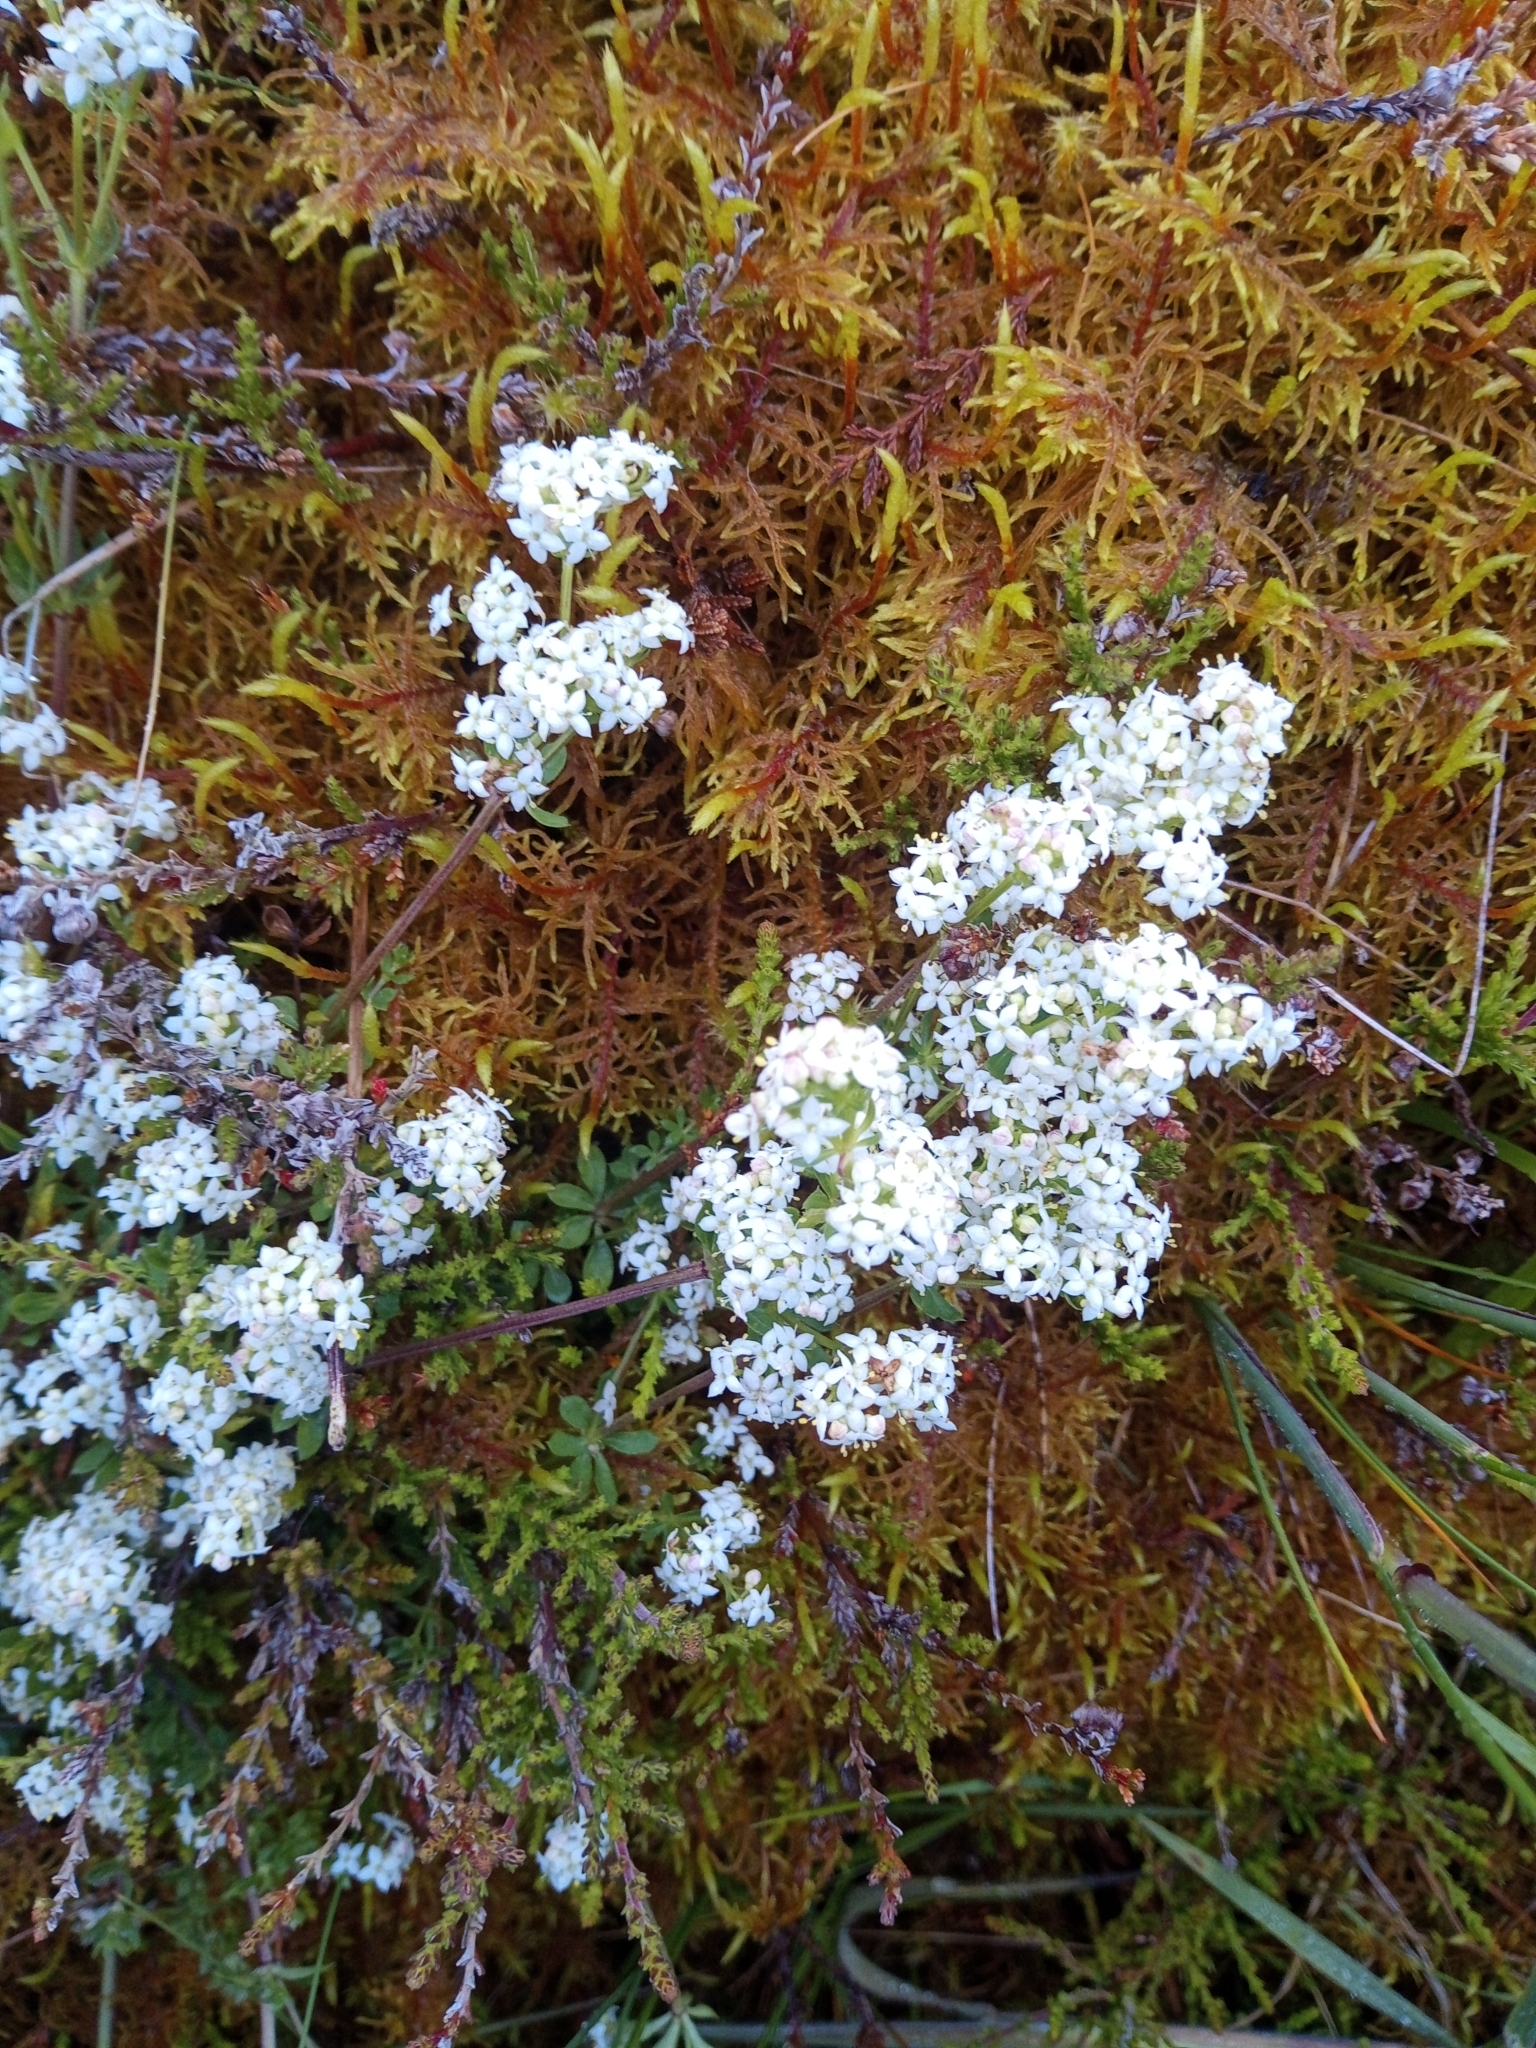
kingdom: Plantae
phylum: Tracheophyta
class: Magnoliopsida
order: Gentianales
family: Rubiaceae
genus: Galium
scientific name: Galium saxatile
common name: Heath bedstraw
